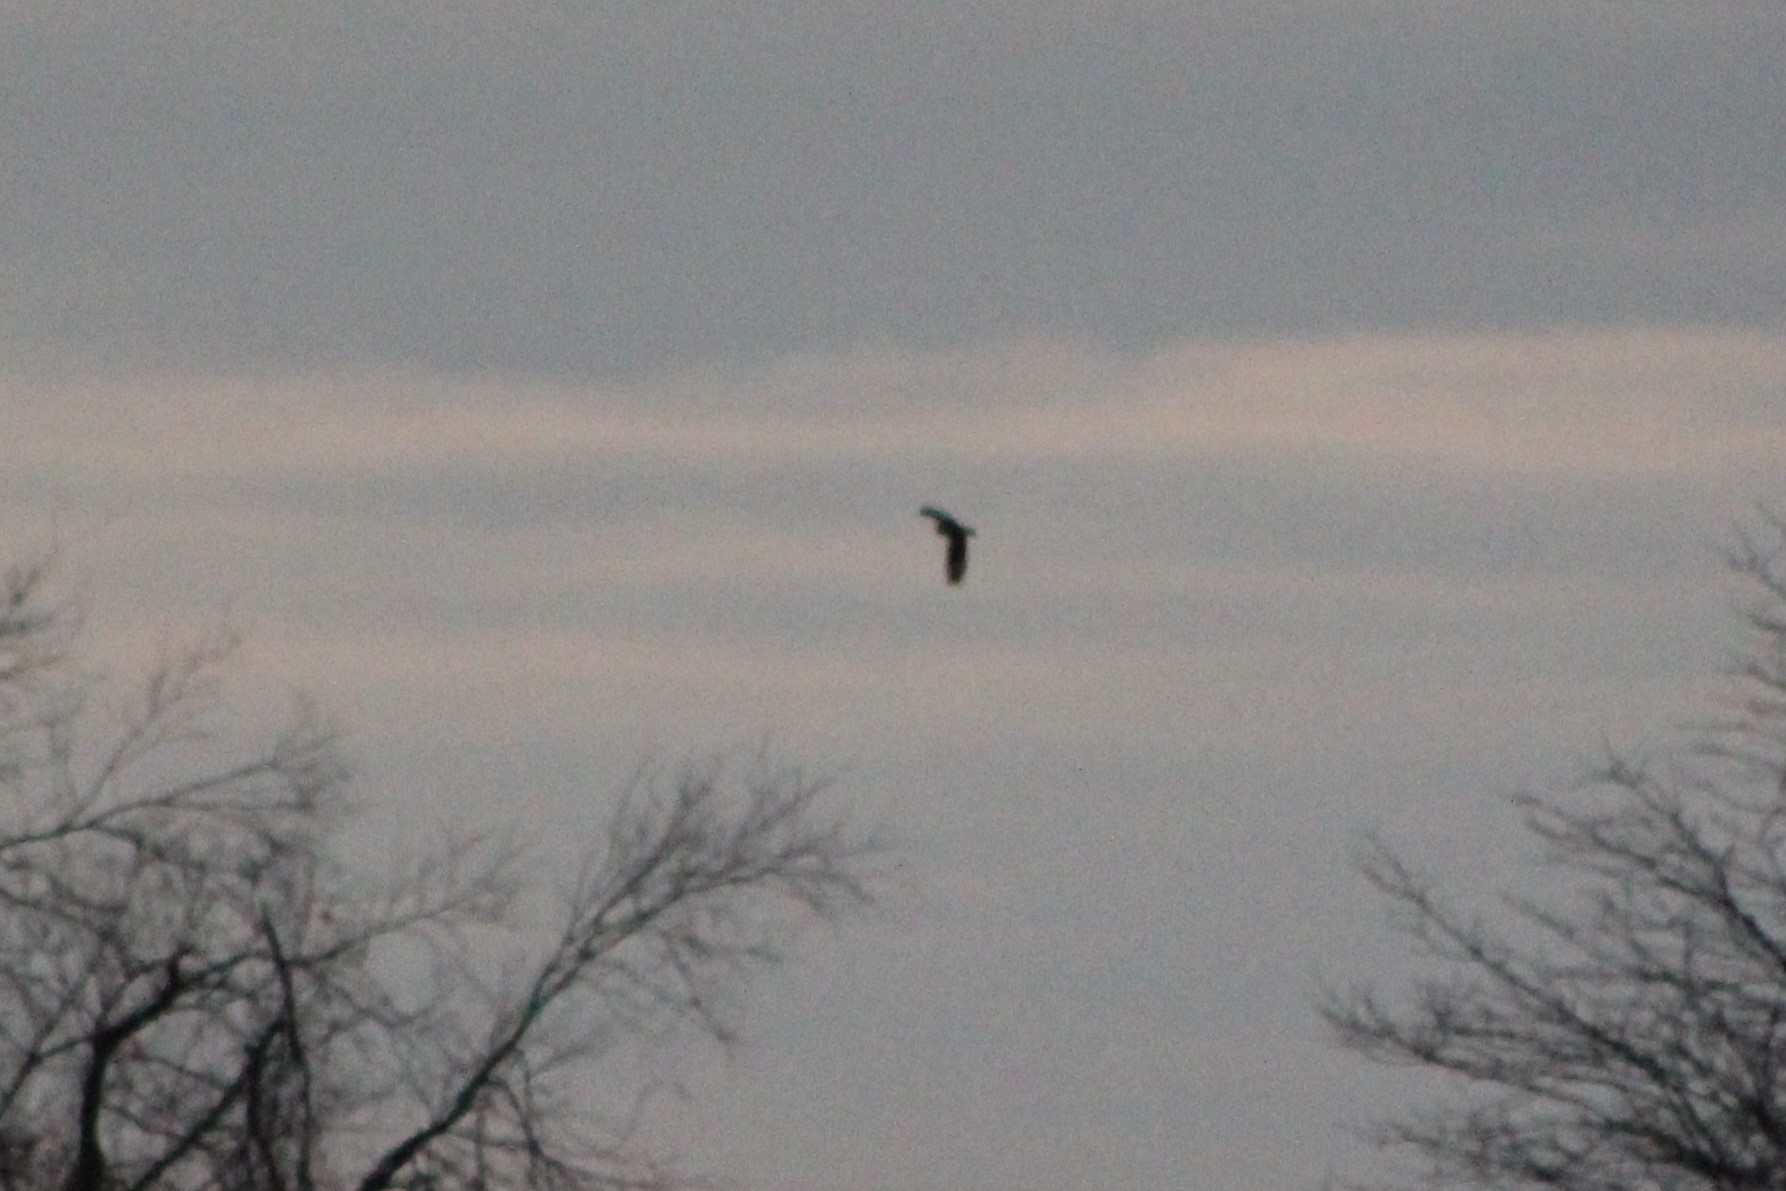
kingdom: Animalia
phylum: Chordata
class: Aves
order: Strigiformes
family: Strigidae
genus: Asio
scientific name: Asio flammeus
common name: Short-eared owl
